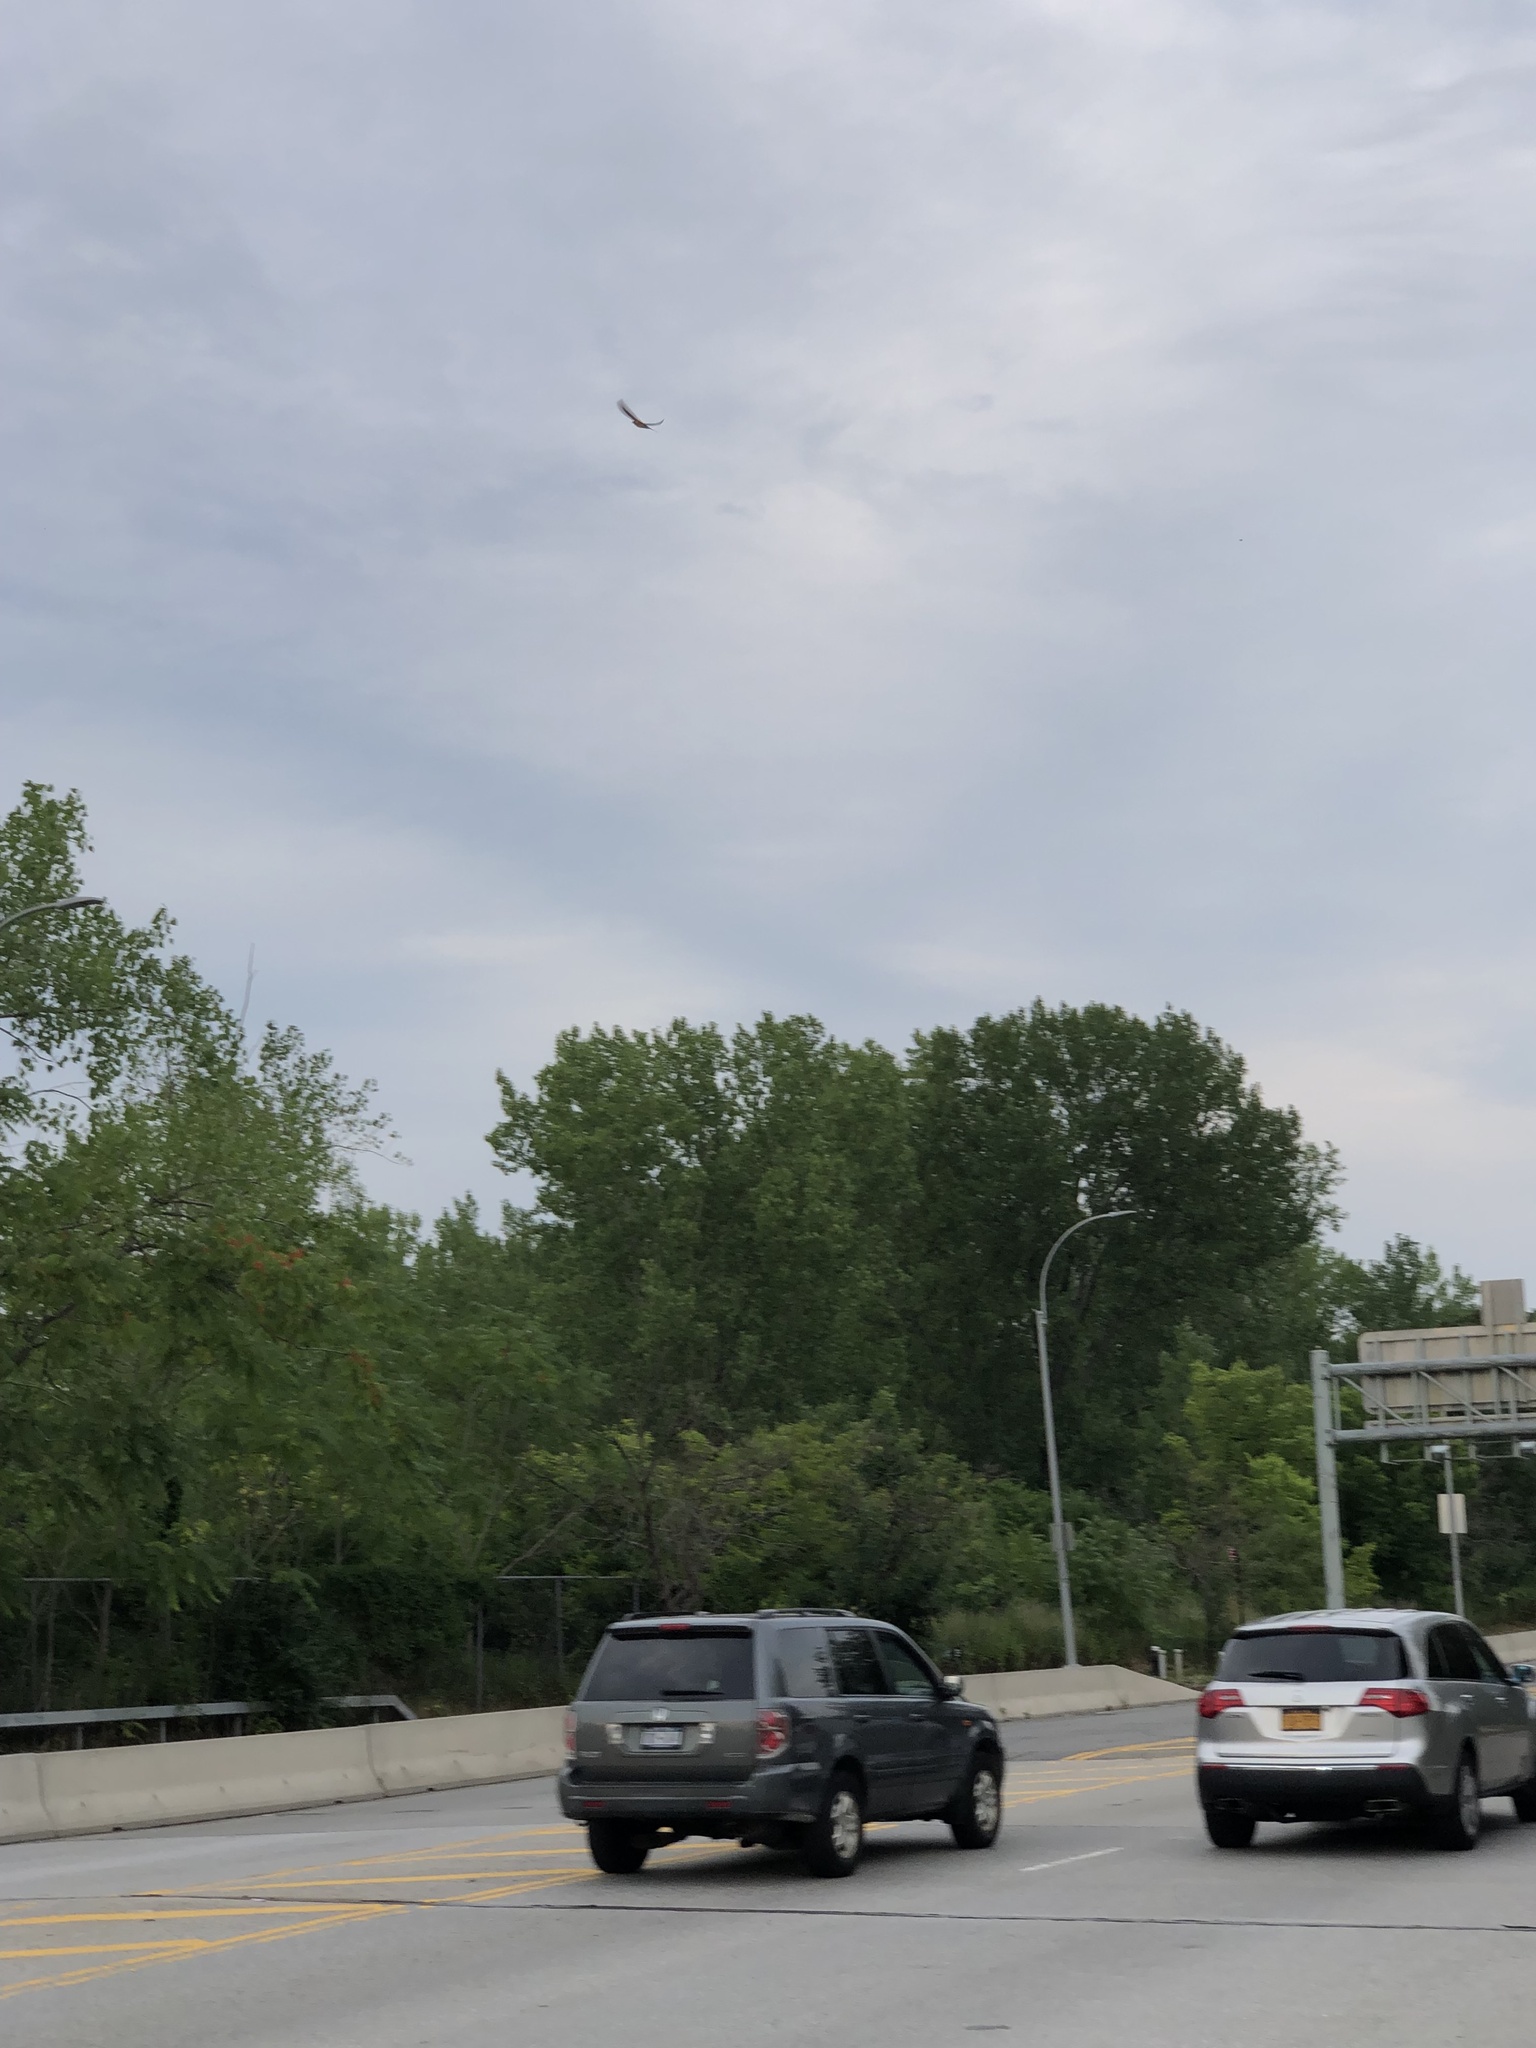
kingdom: Animalia
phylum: Chordata
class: Aves
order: Passeriformes
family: Hirundinidae
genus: Hirundo
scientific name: Hirundo rustica
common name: Barn swallow
